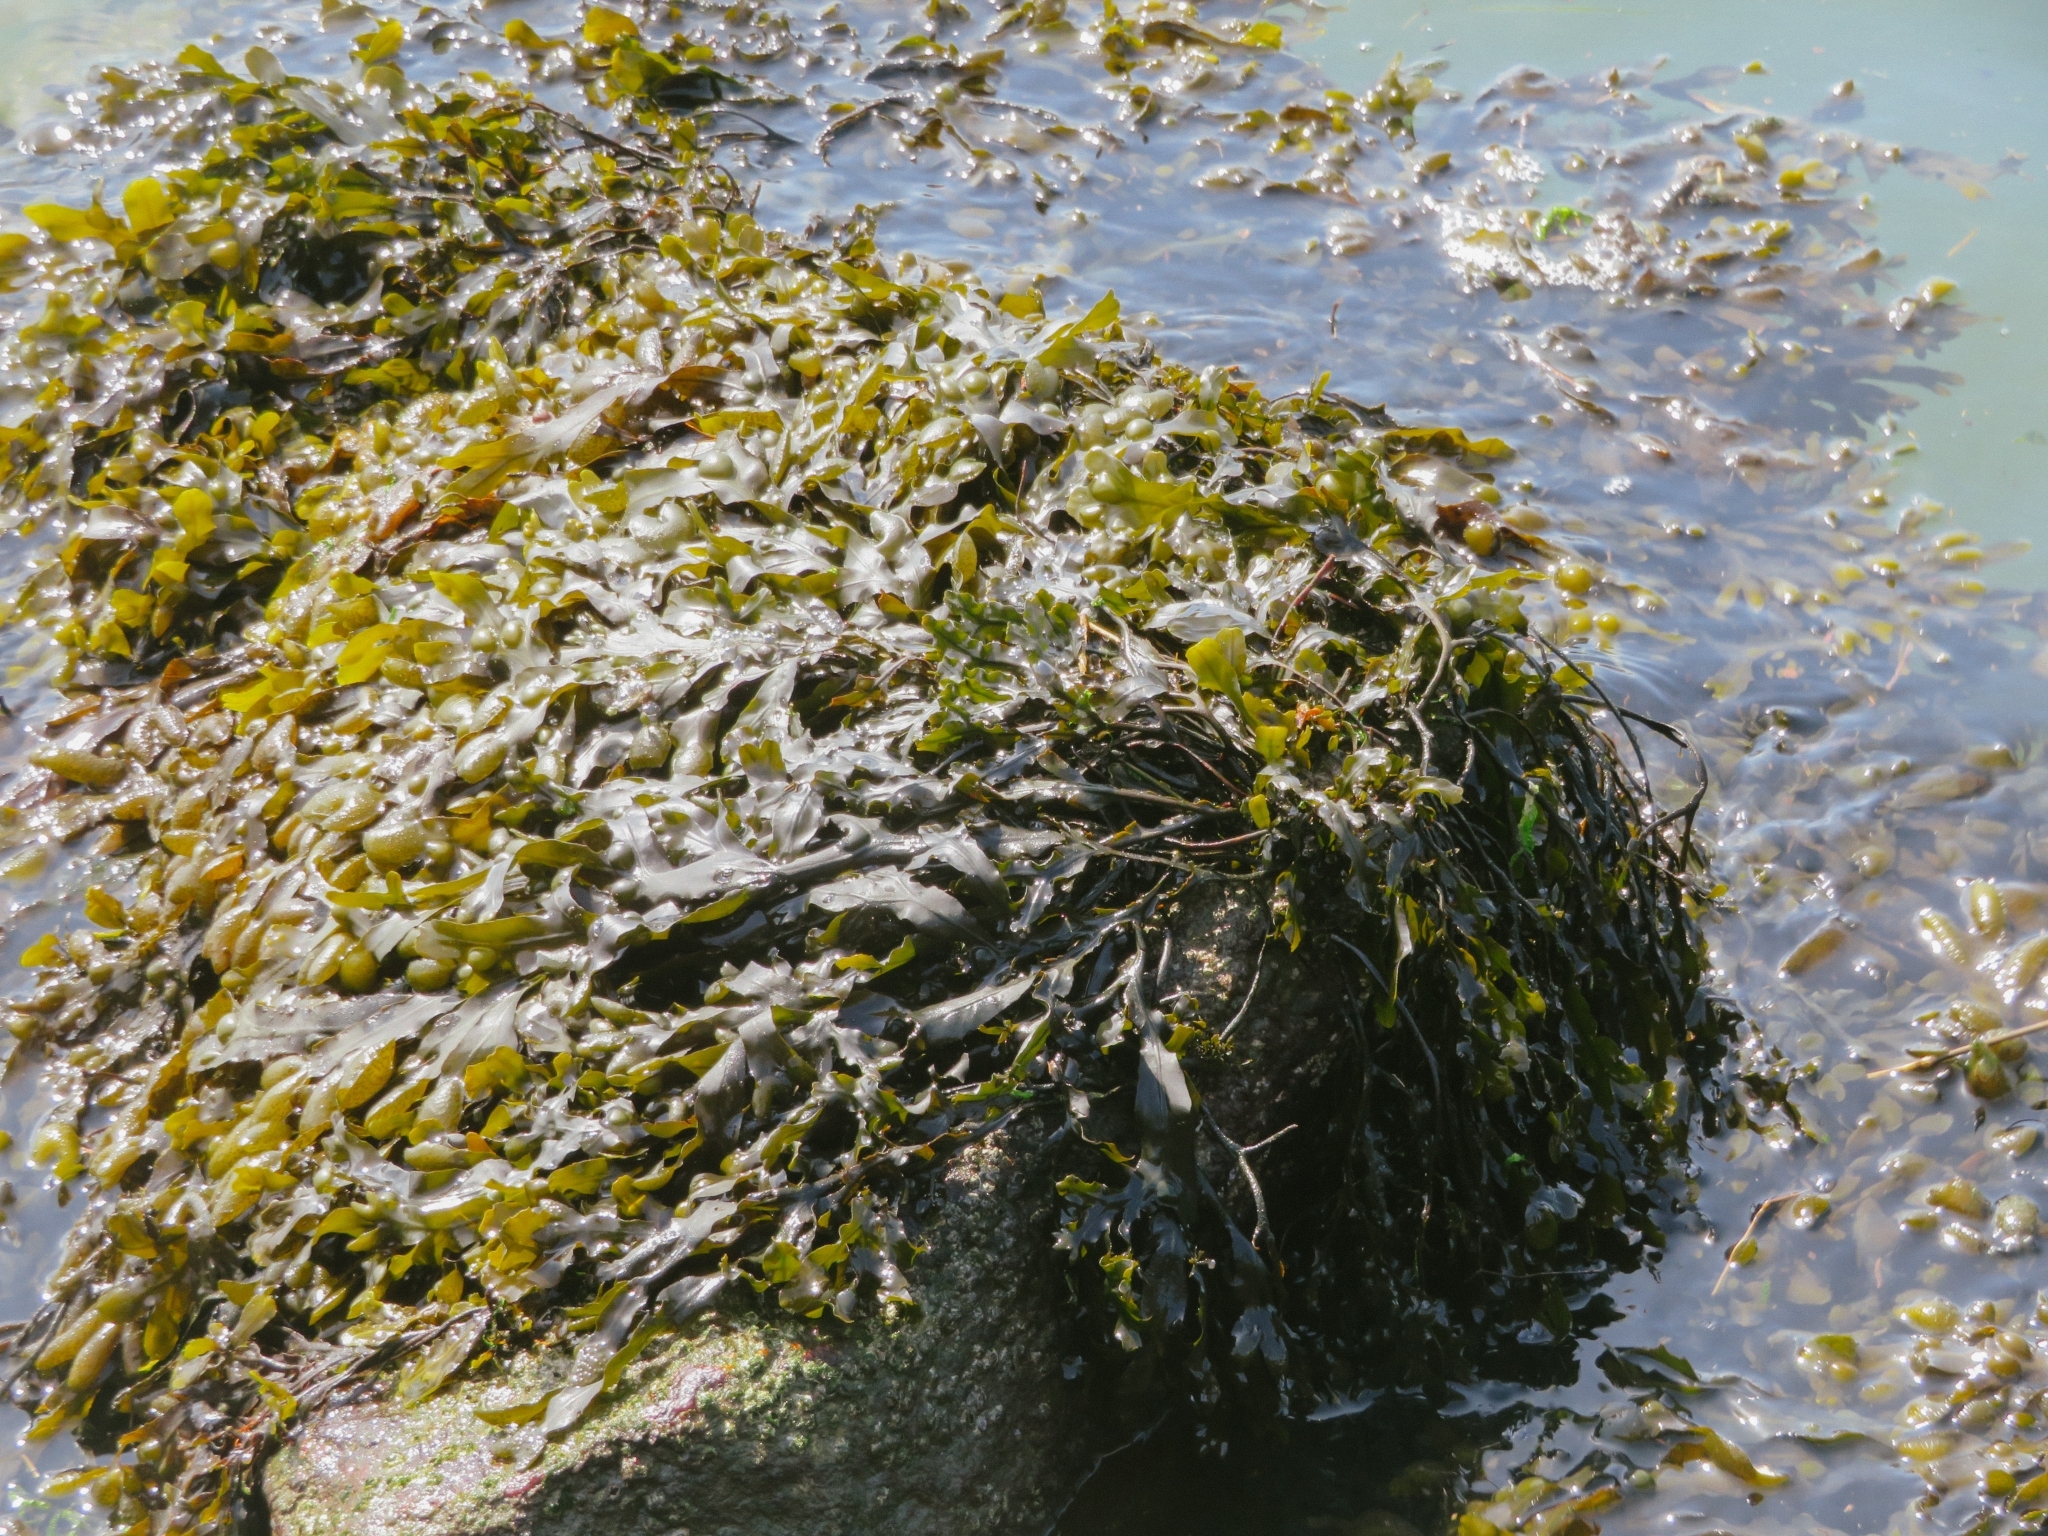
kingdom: Chromista
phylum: Ochrophyta
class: Phaeophyceae
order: Fucales
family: Fucaceae
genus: Fucus
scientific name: Fucus vesiculosus
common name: Bladder wrack
